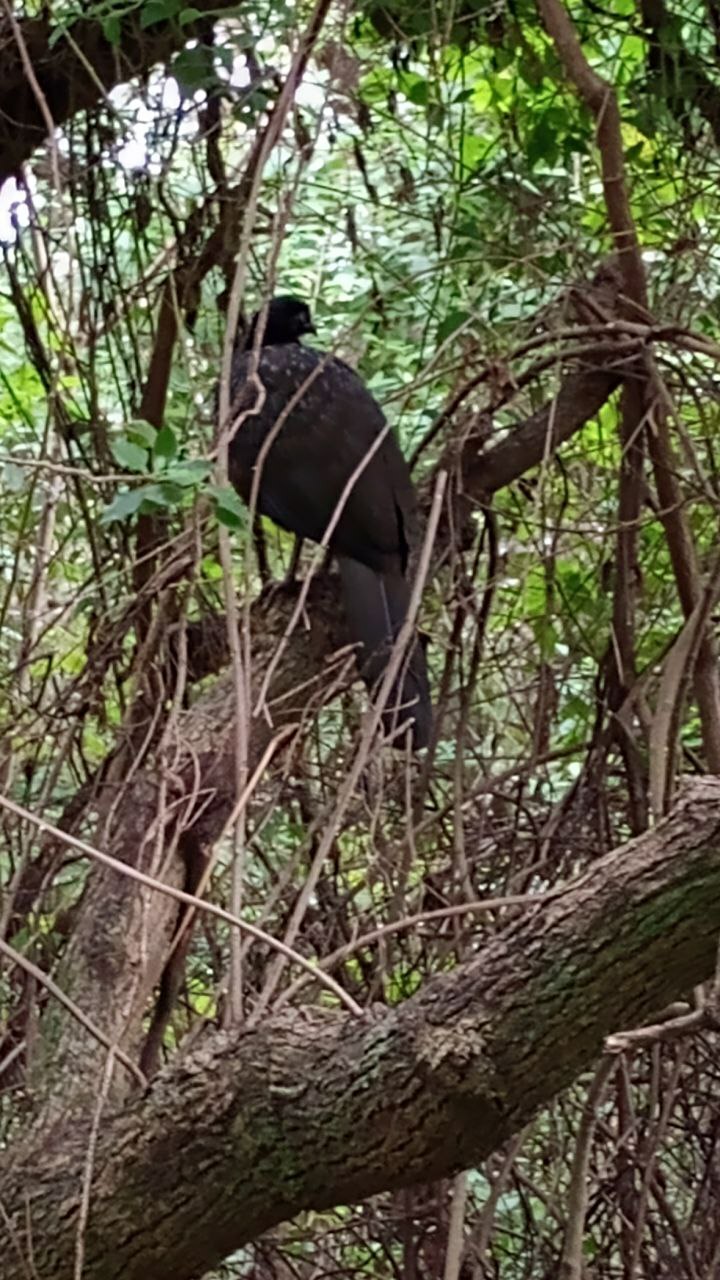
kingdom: Animalia
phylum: Chordata
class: Aves
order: Galliformes
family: Cracidae
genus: Penelope
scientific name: Penelope obscura
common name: Dusky-legged guan
